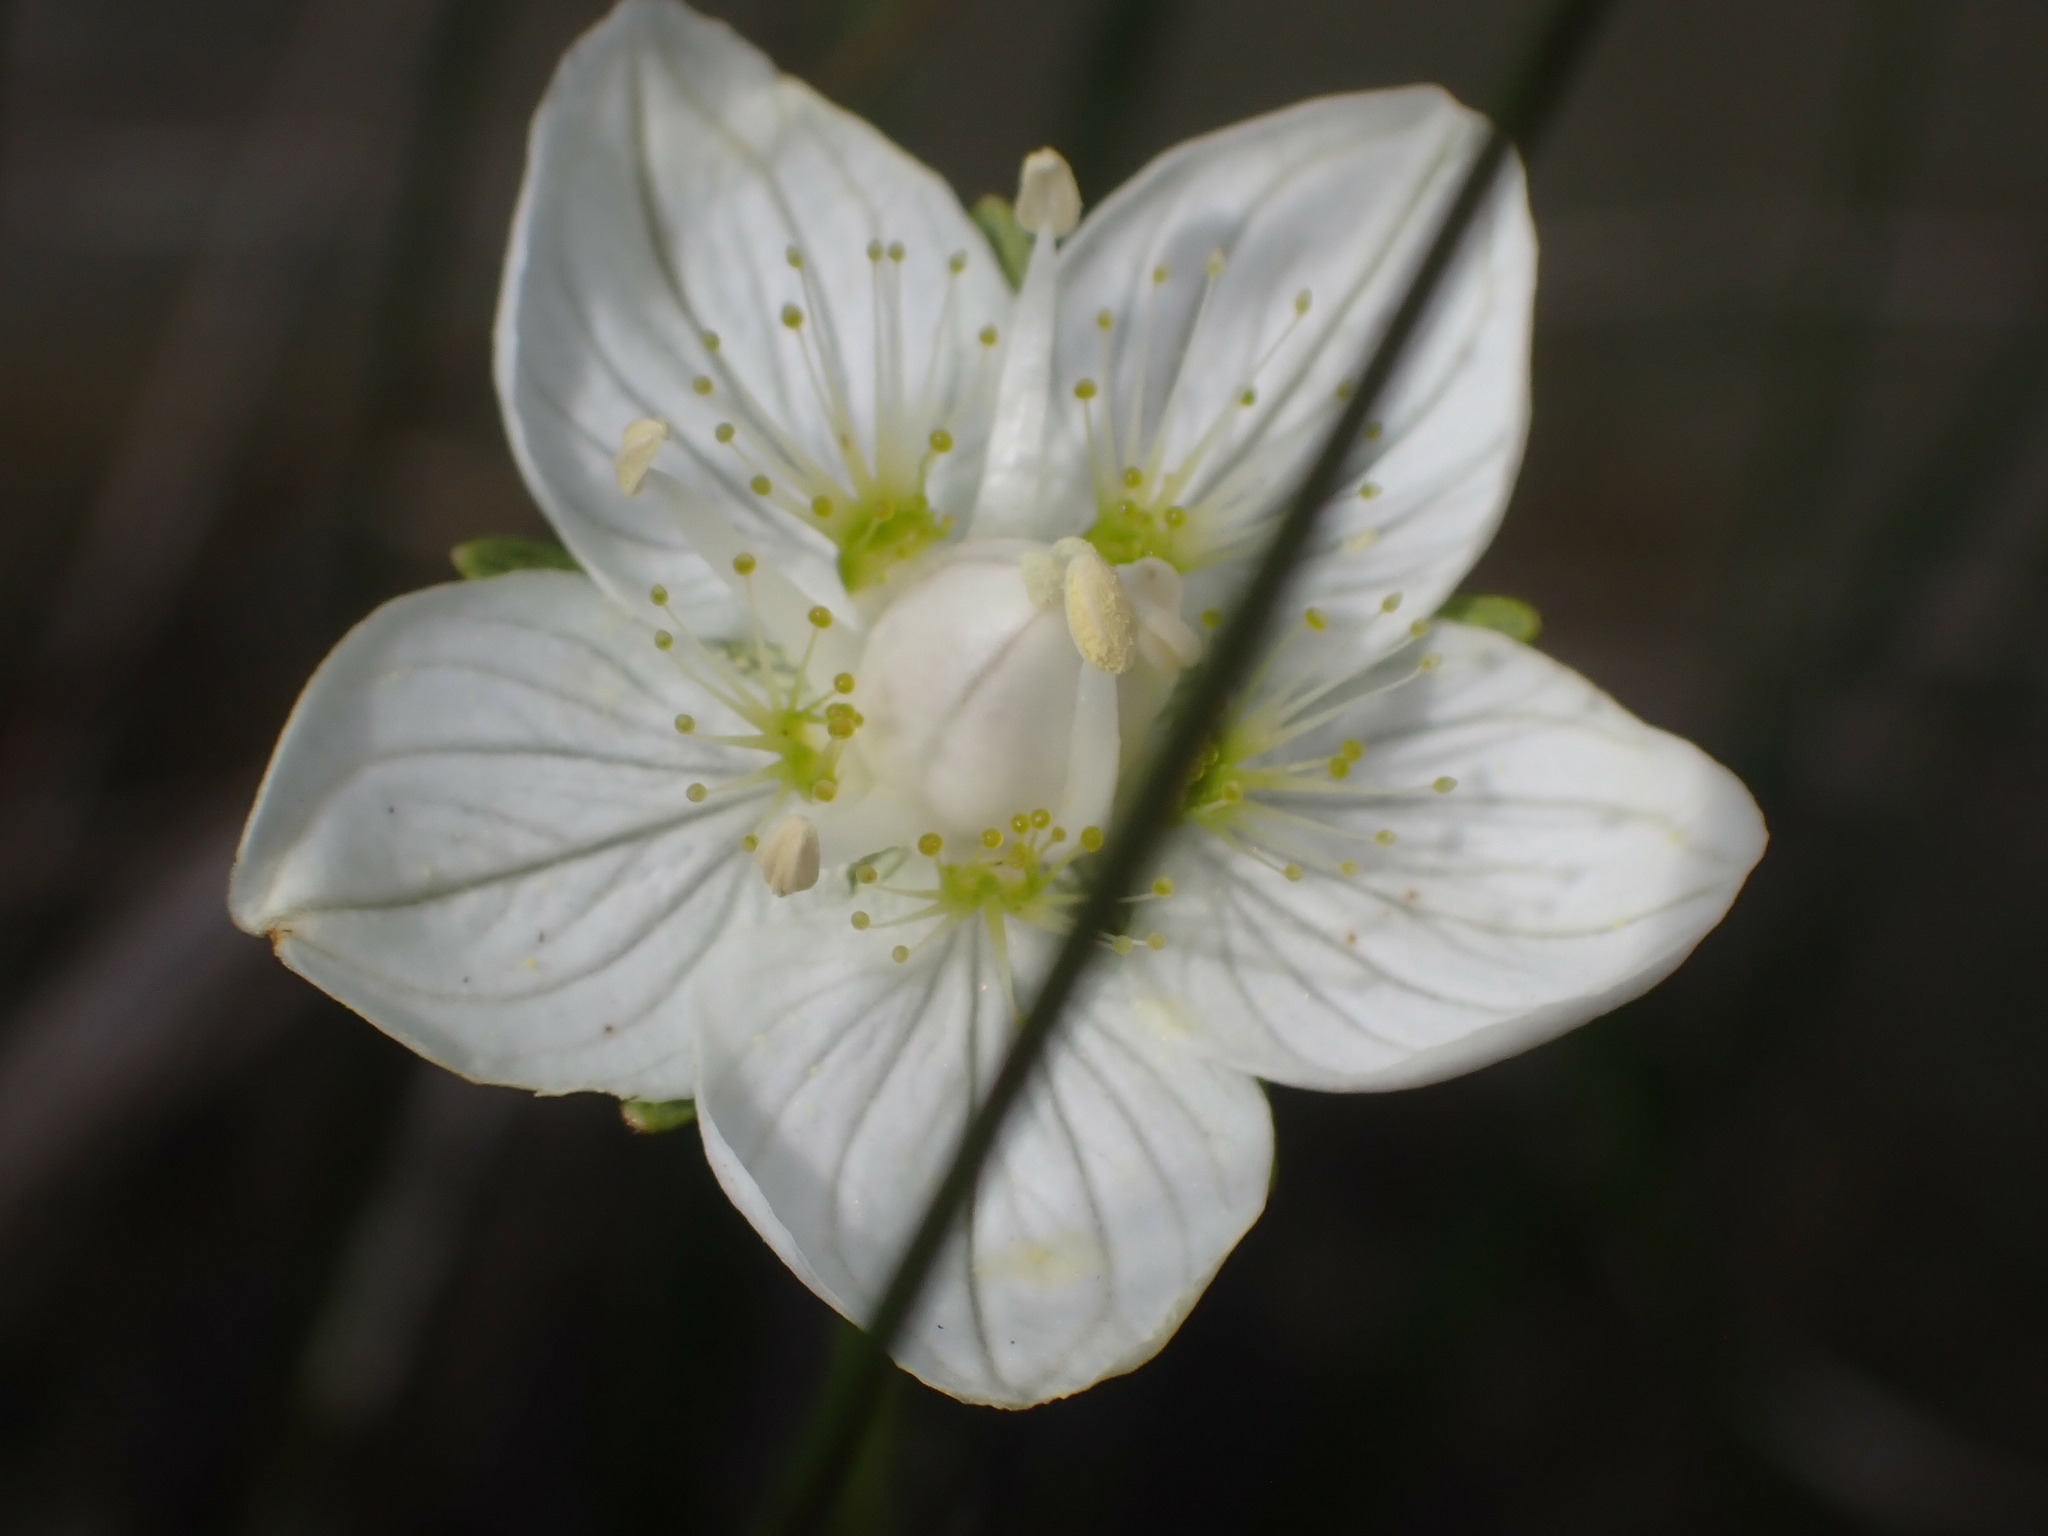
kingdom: Plantae
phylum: Tracheophyta
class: Magnoliopsida
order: Celastrales
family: Parnassiaceae
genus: Parnassia
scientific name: Parnassia palustris
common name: Grass-of-parnassus
